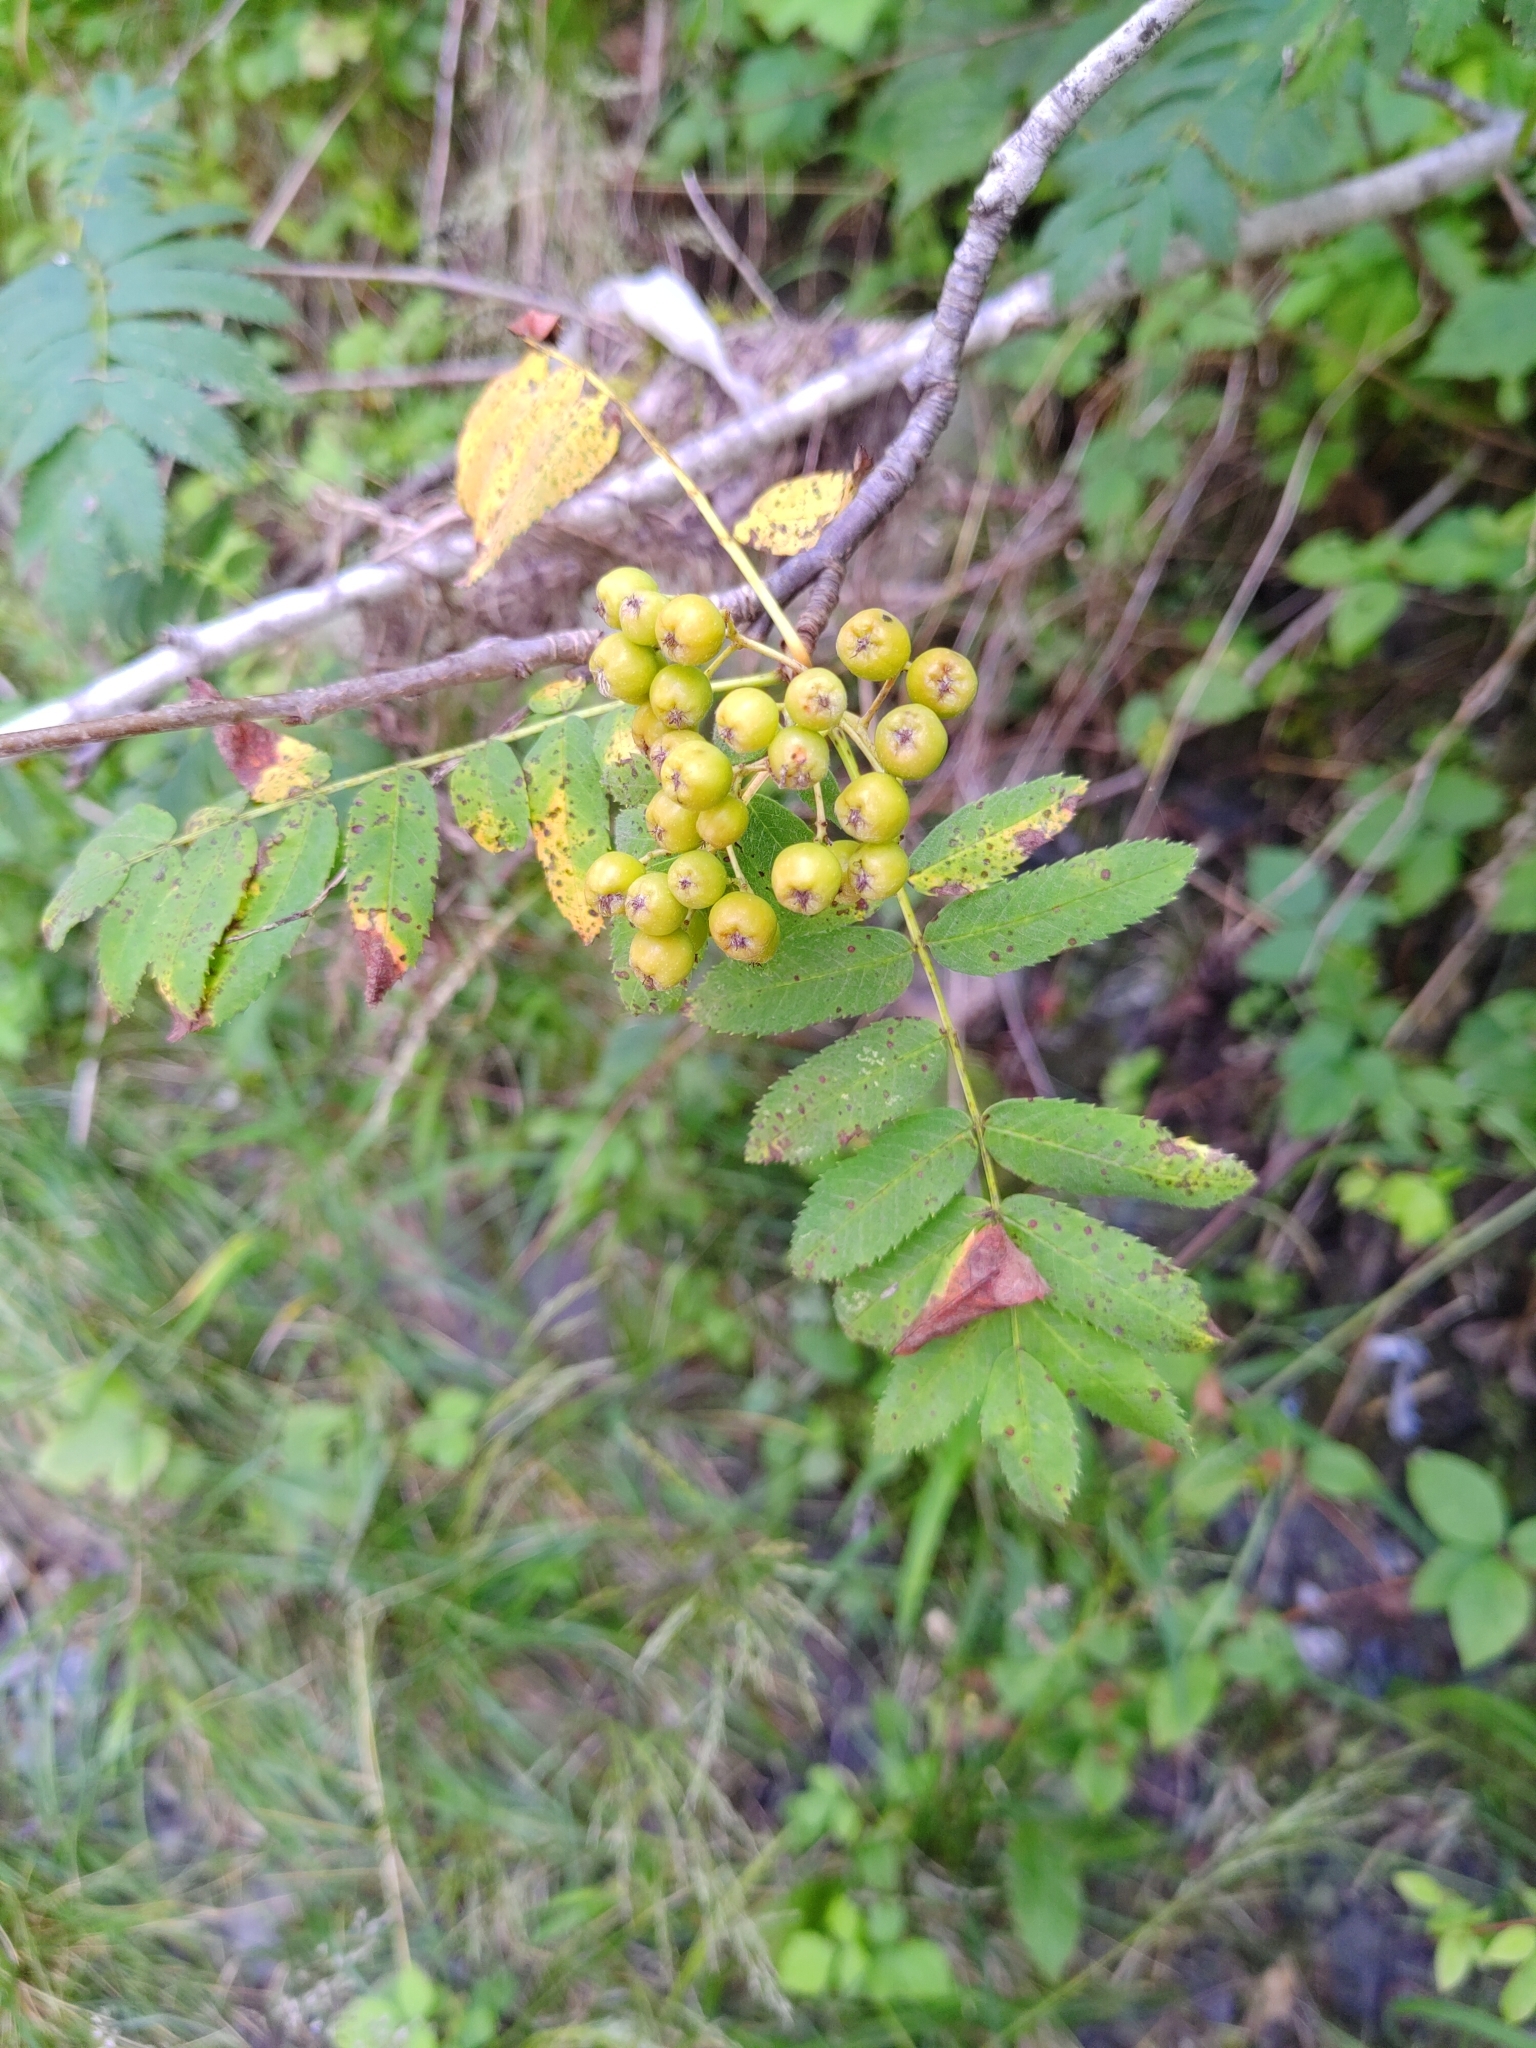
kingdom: Plantae
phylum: Tracheophyta
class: Magnoliopsida
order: Rosales
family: Rosaceae
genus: Sorbus
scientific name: Sorbus aucuparia
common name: Rowan
